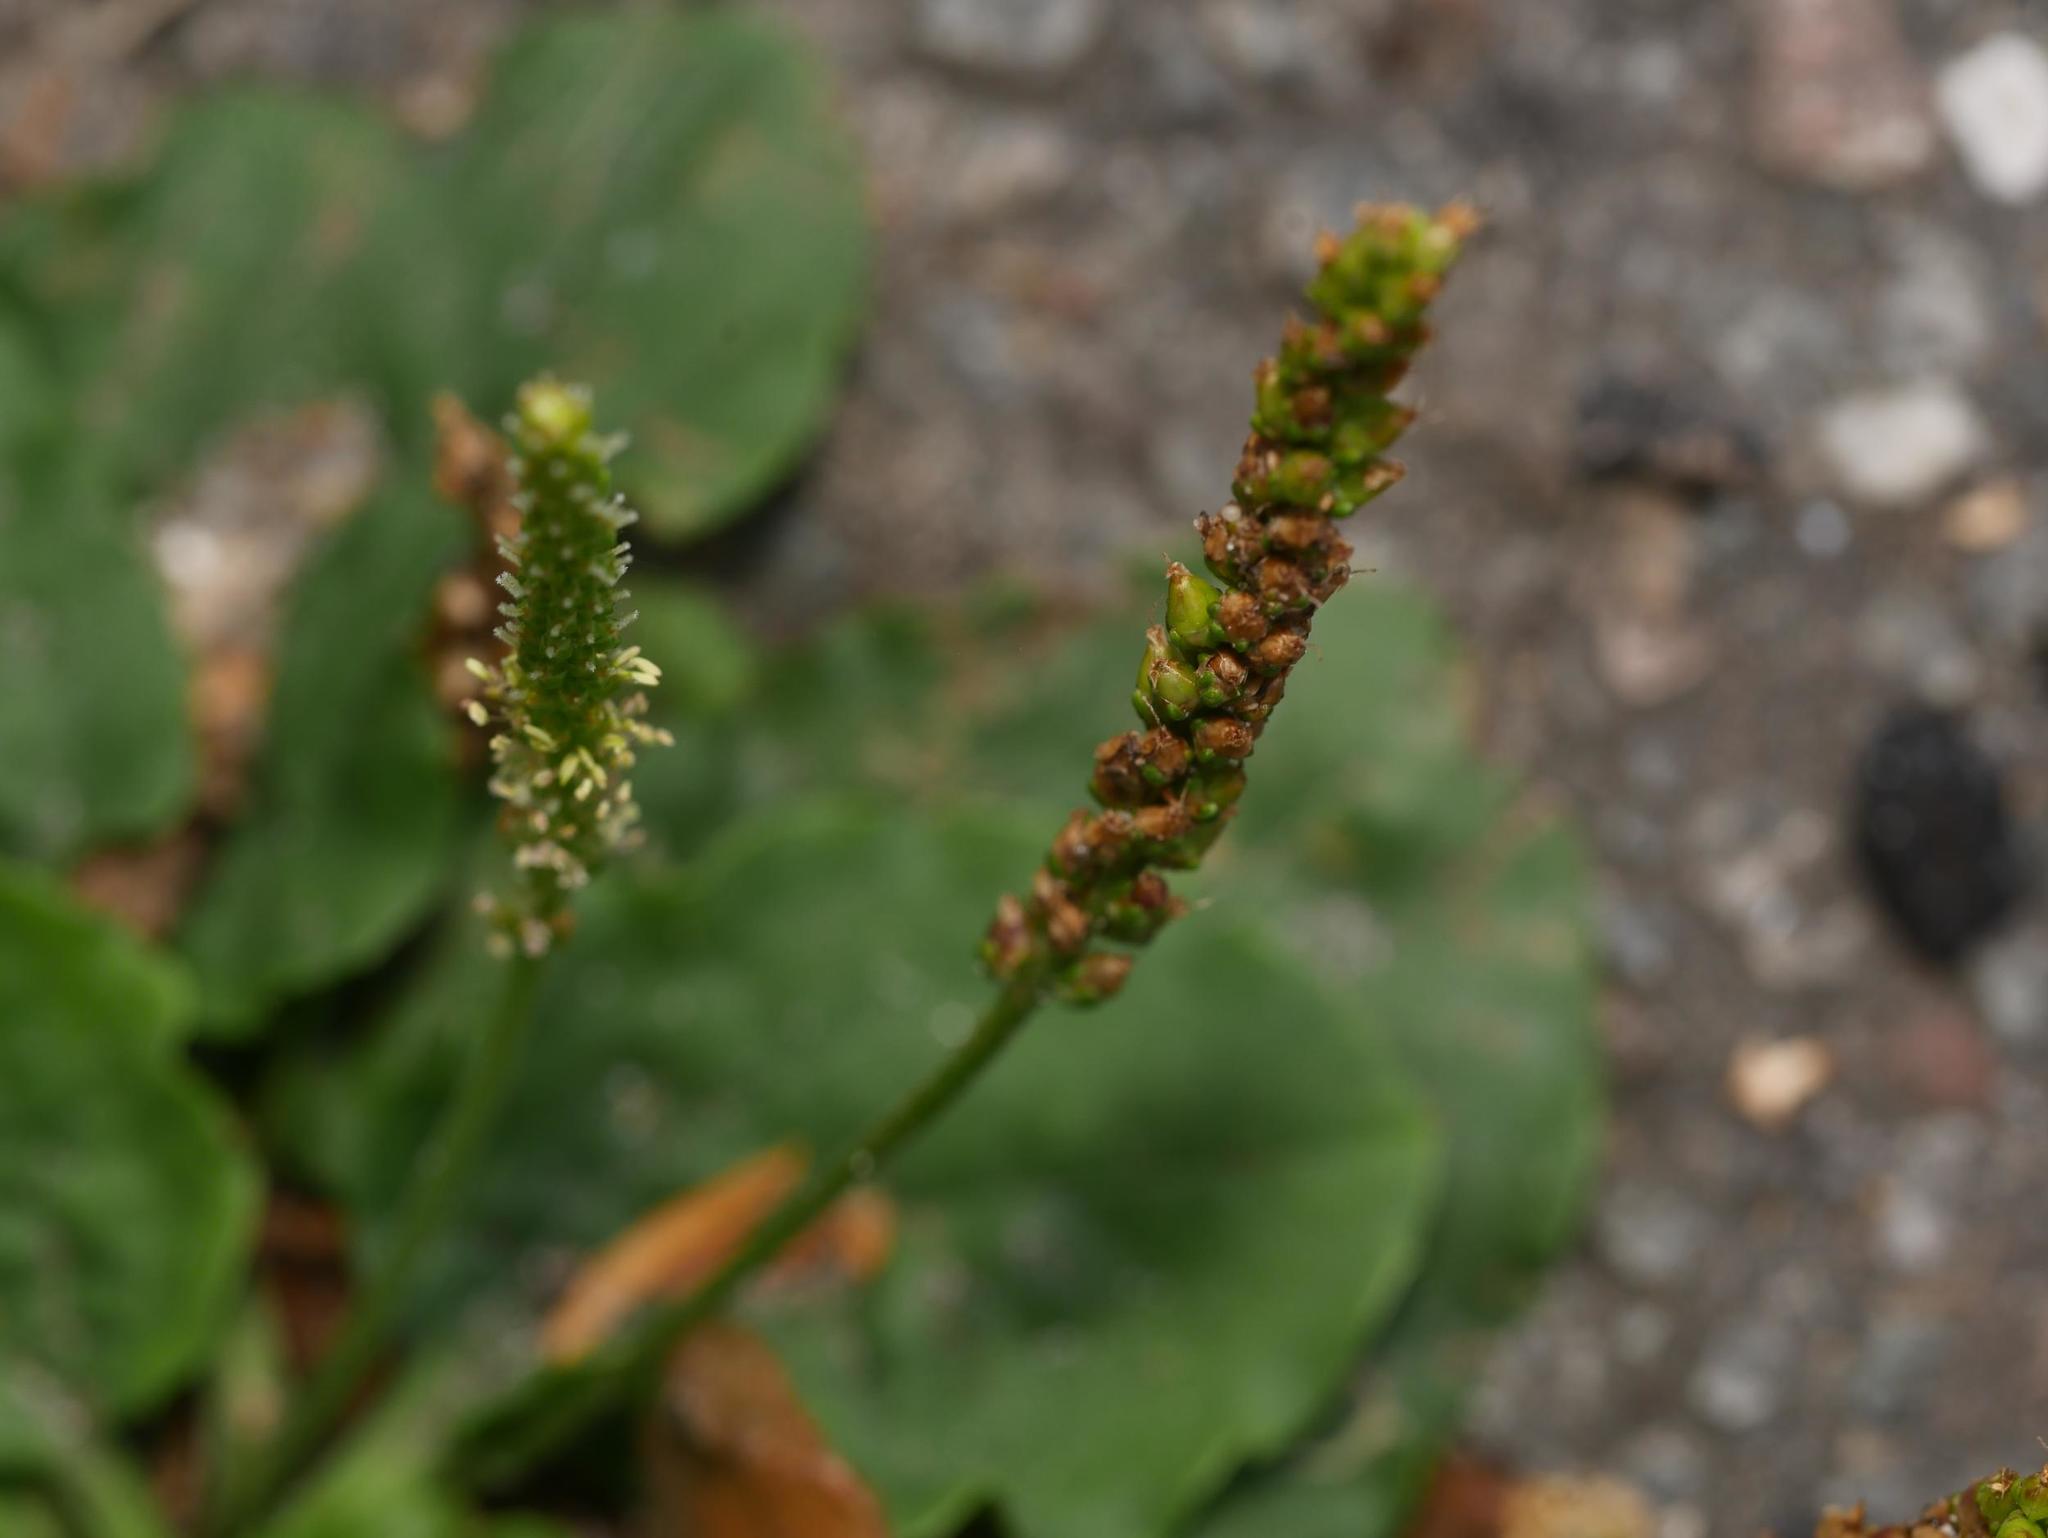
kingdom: Plantae
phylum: Tracheophyta
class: Magnoliopsida
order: Lamiales
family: Plantaginaceae
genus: Plantago
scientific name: Plantago major
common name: Common plantain
